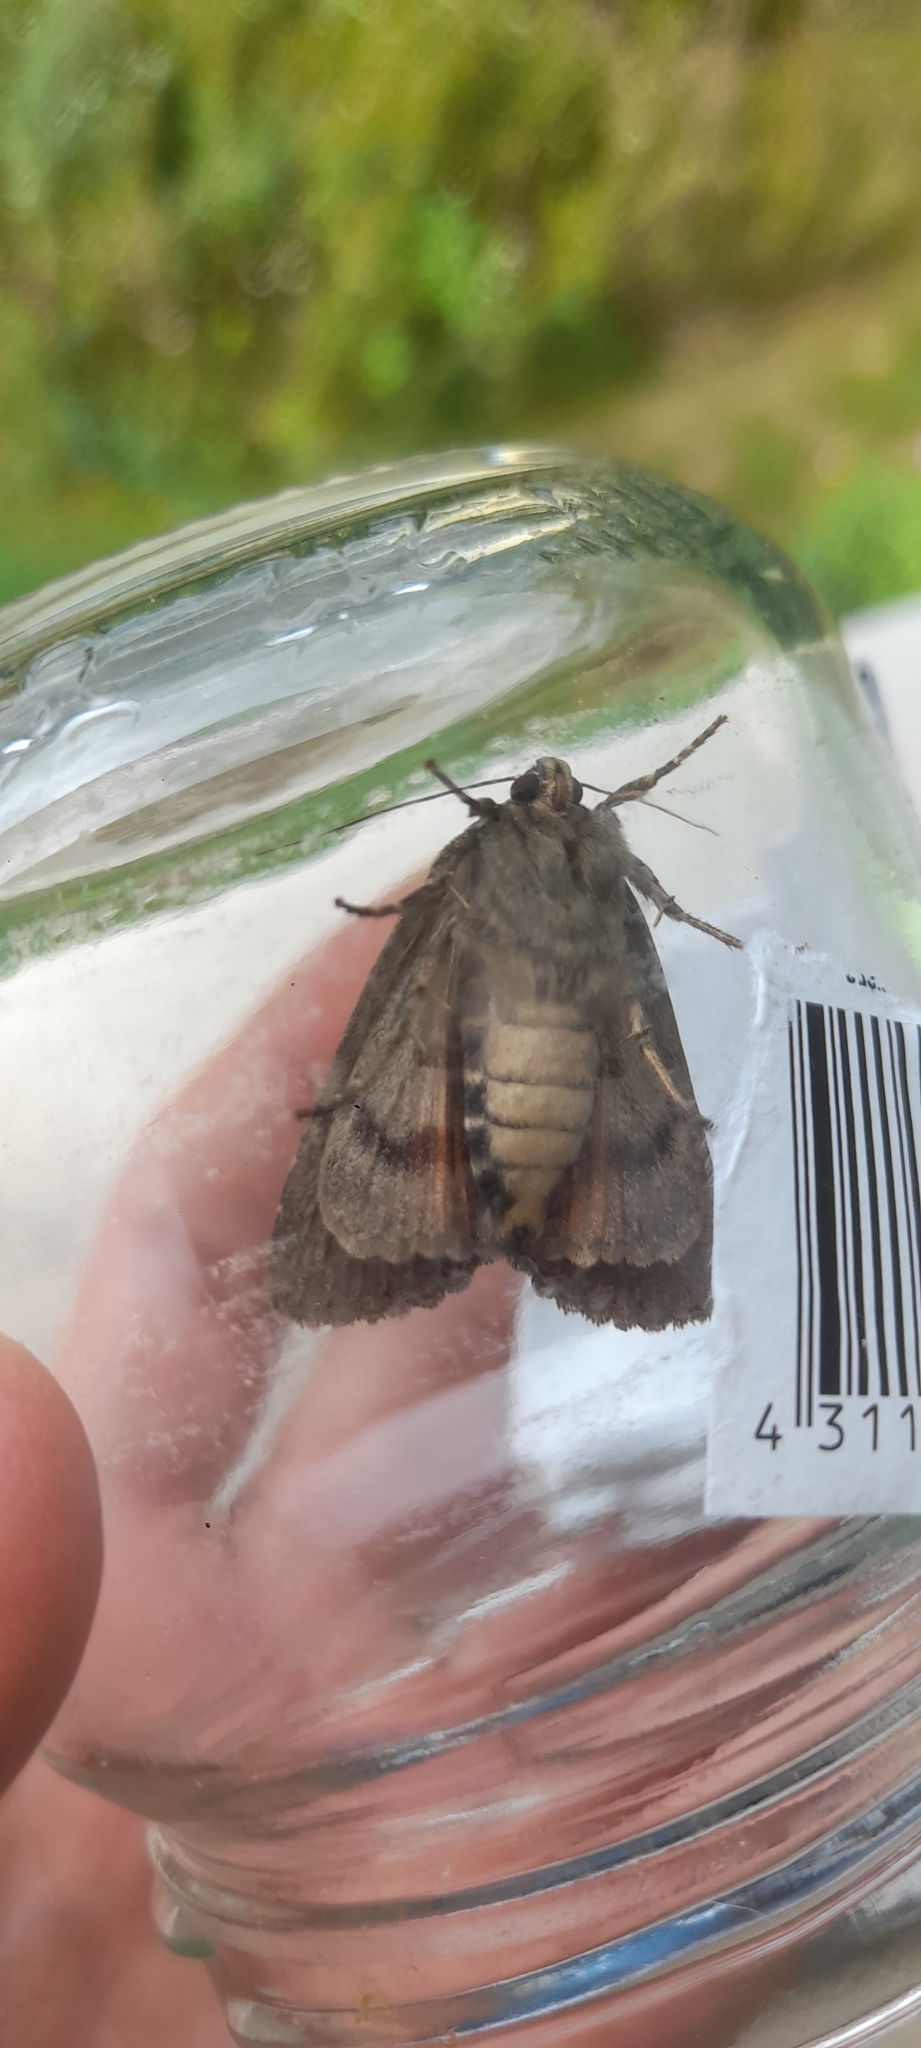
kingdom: Animalia
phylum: Arthropoda
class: Insecta
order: Lepidoptera
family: Noctuidae
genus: Amphipyra
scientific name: Amphipyra berbera
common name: Svensson's copper underwing
